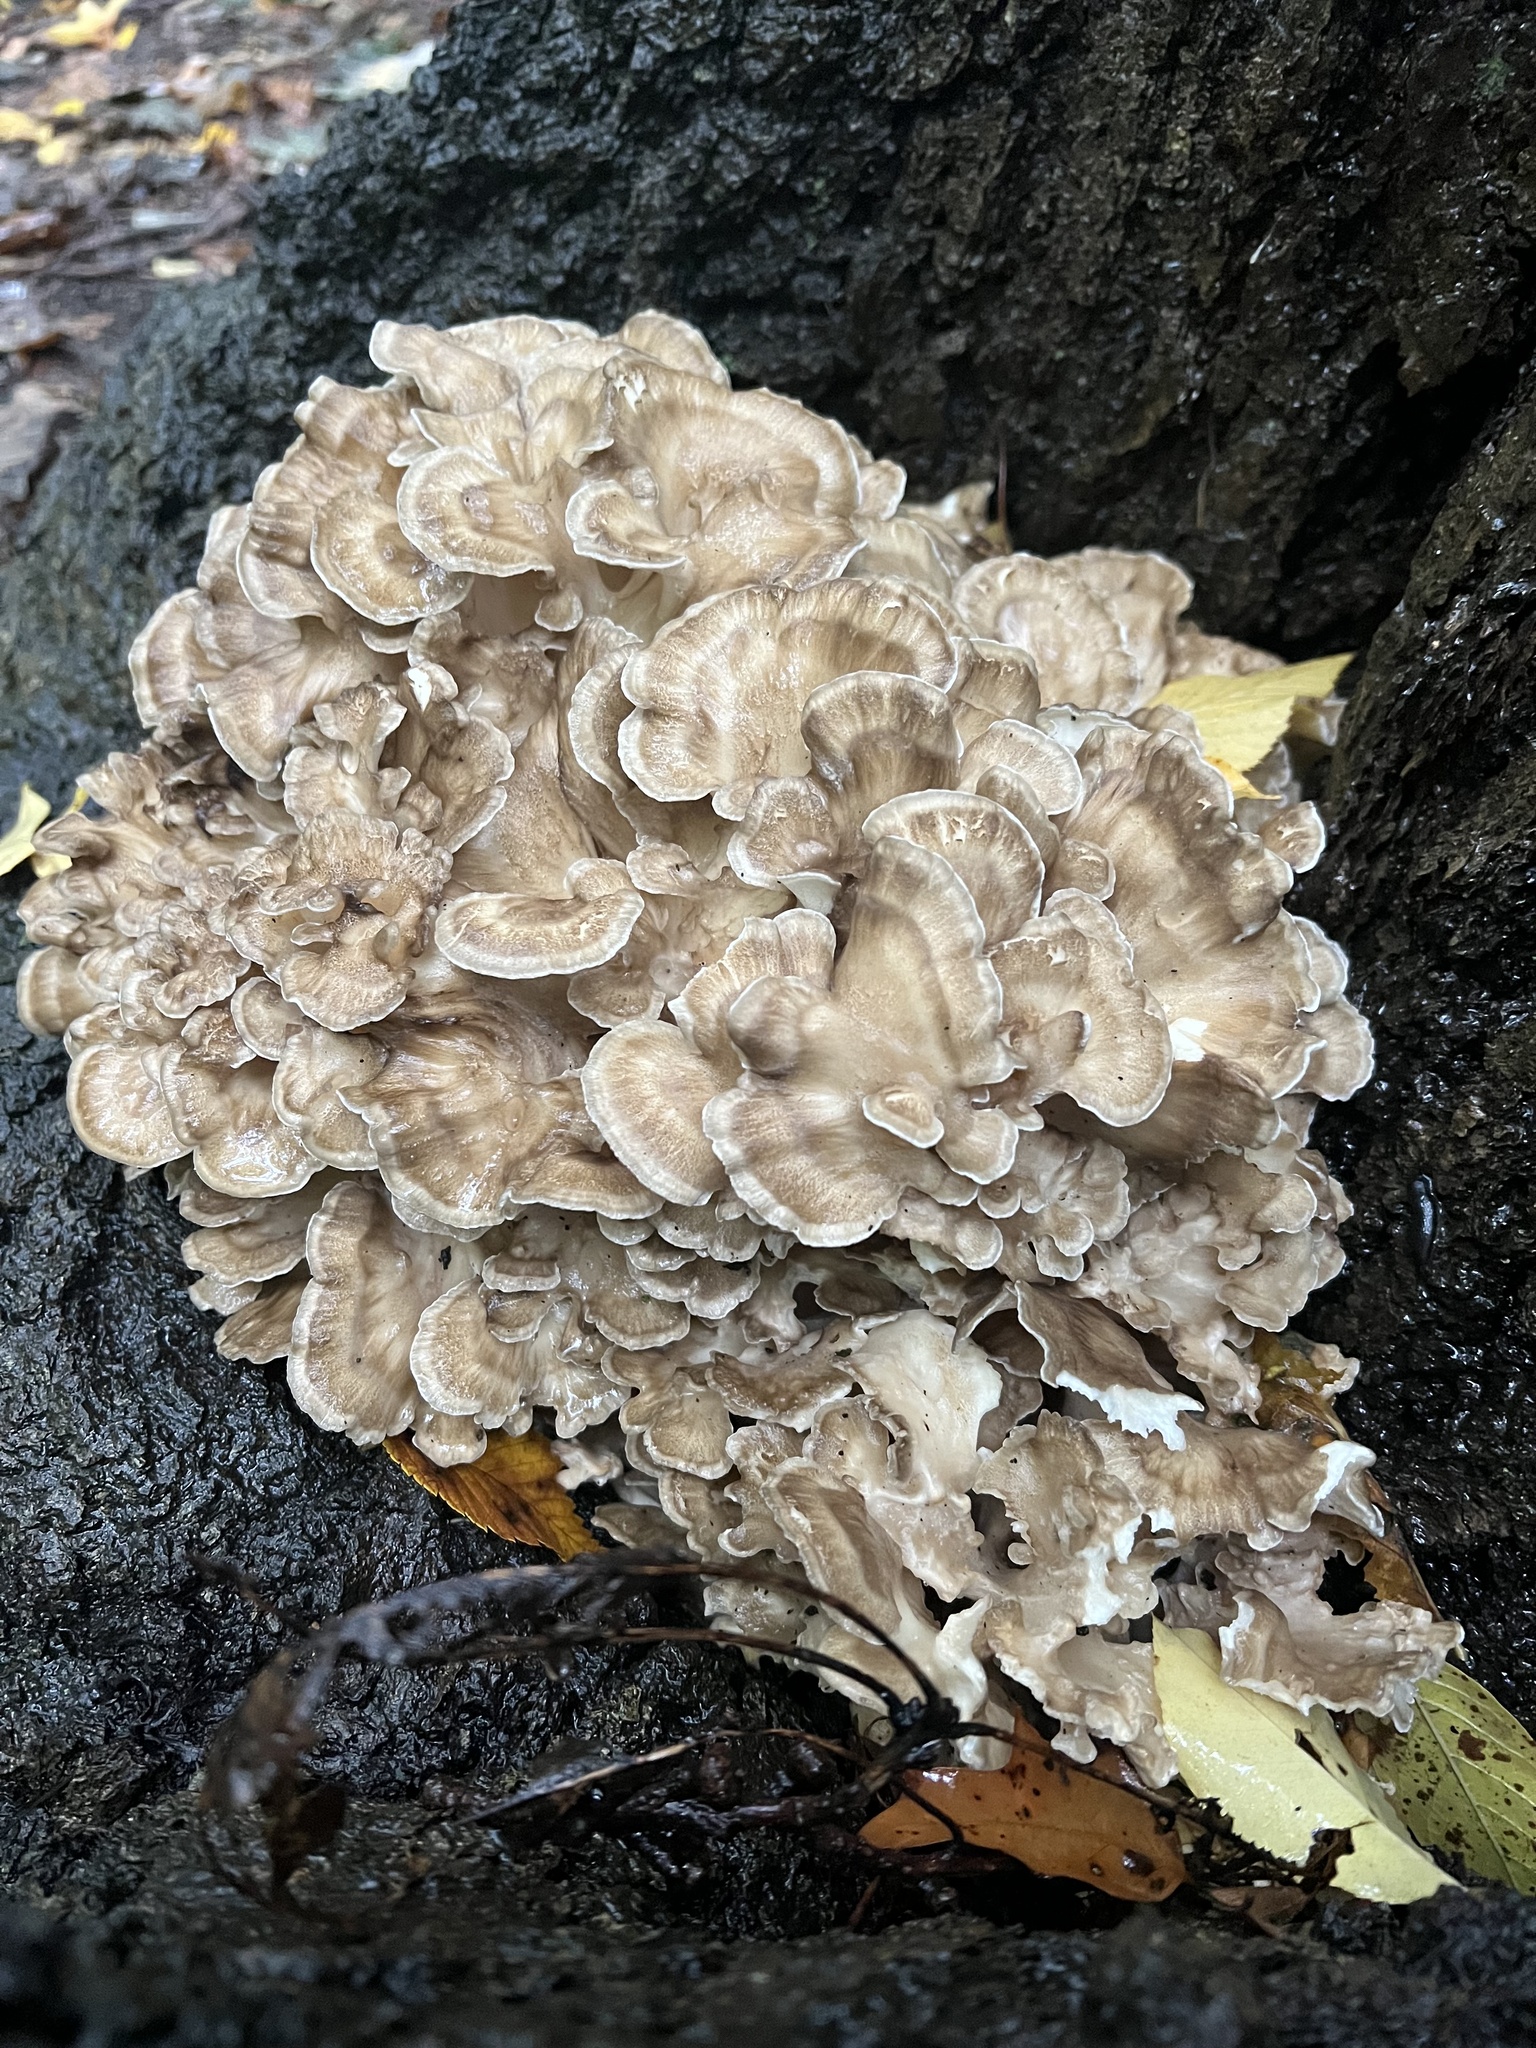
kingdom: Fungi
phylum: Basidiomycota
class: Agaricomycetes
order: Polyporales
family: Grifolaceae
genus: Grifola
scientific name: Grifola frondosa
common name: Hen of the woods
